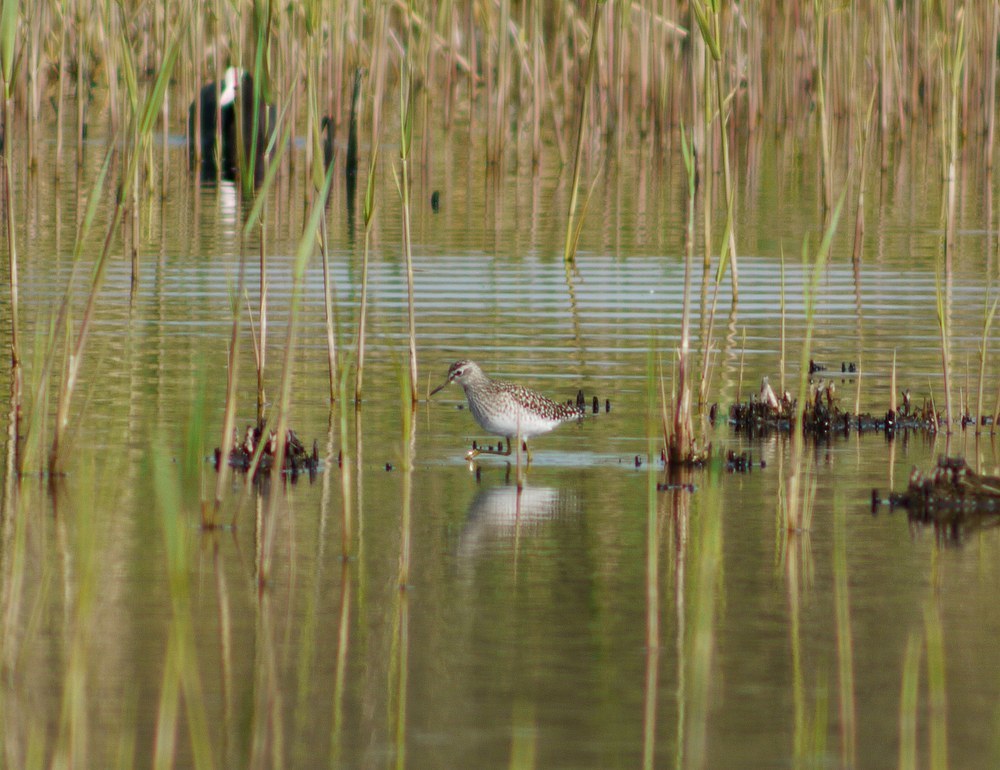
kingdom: Animalia
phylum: Chordata
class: Aves
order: Charadriiformes
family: Scolopacidae
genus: Tringa
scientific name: Tringa glareola
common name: Wood sandpiper
